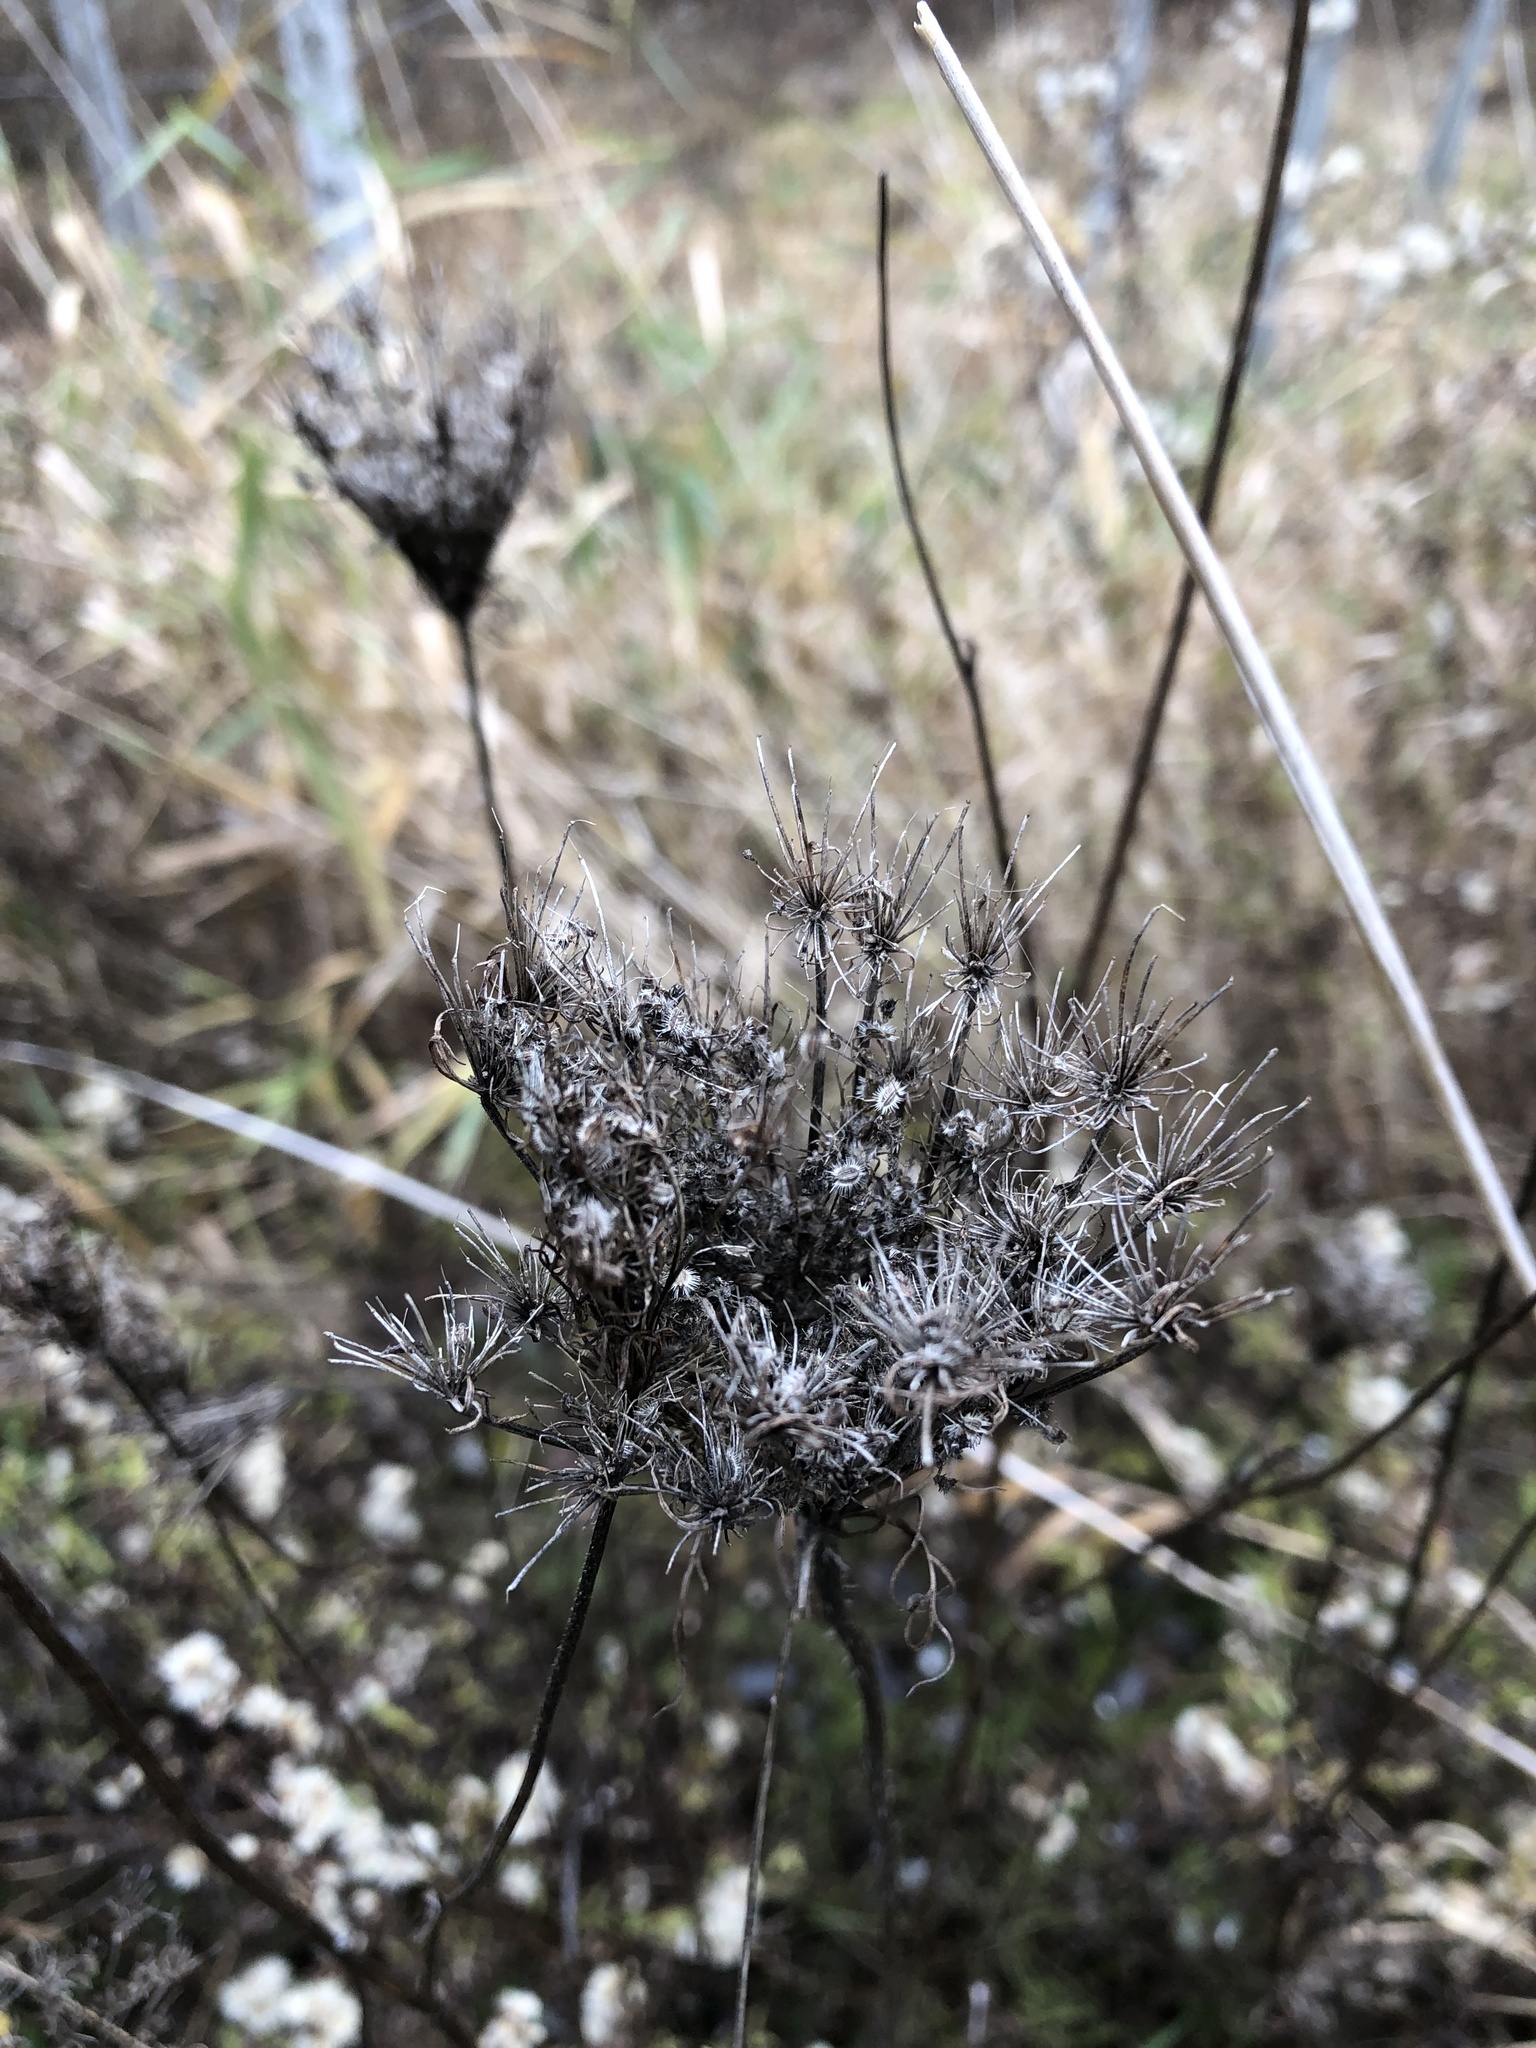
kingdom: Plantae
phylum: Tracheophyta
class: Magnoliopsida
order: Apiales
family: Apiaceae
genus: Daucus
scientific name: Daucus carota
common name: Wild carrot
